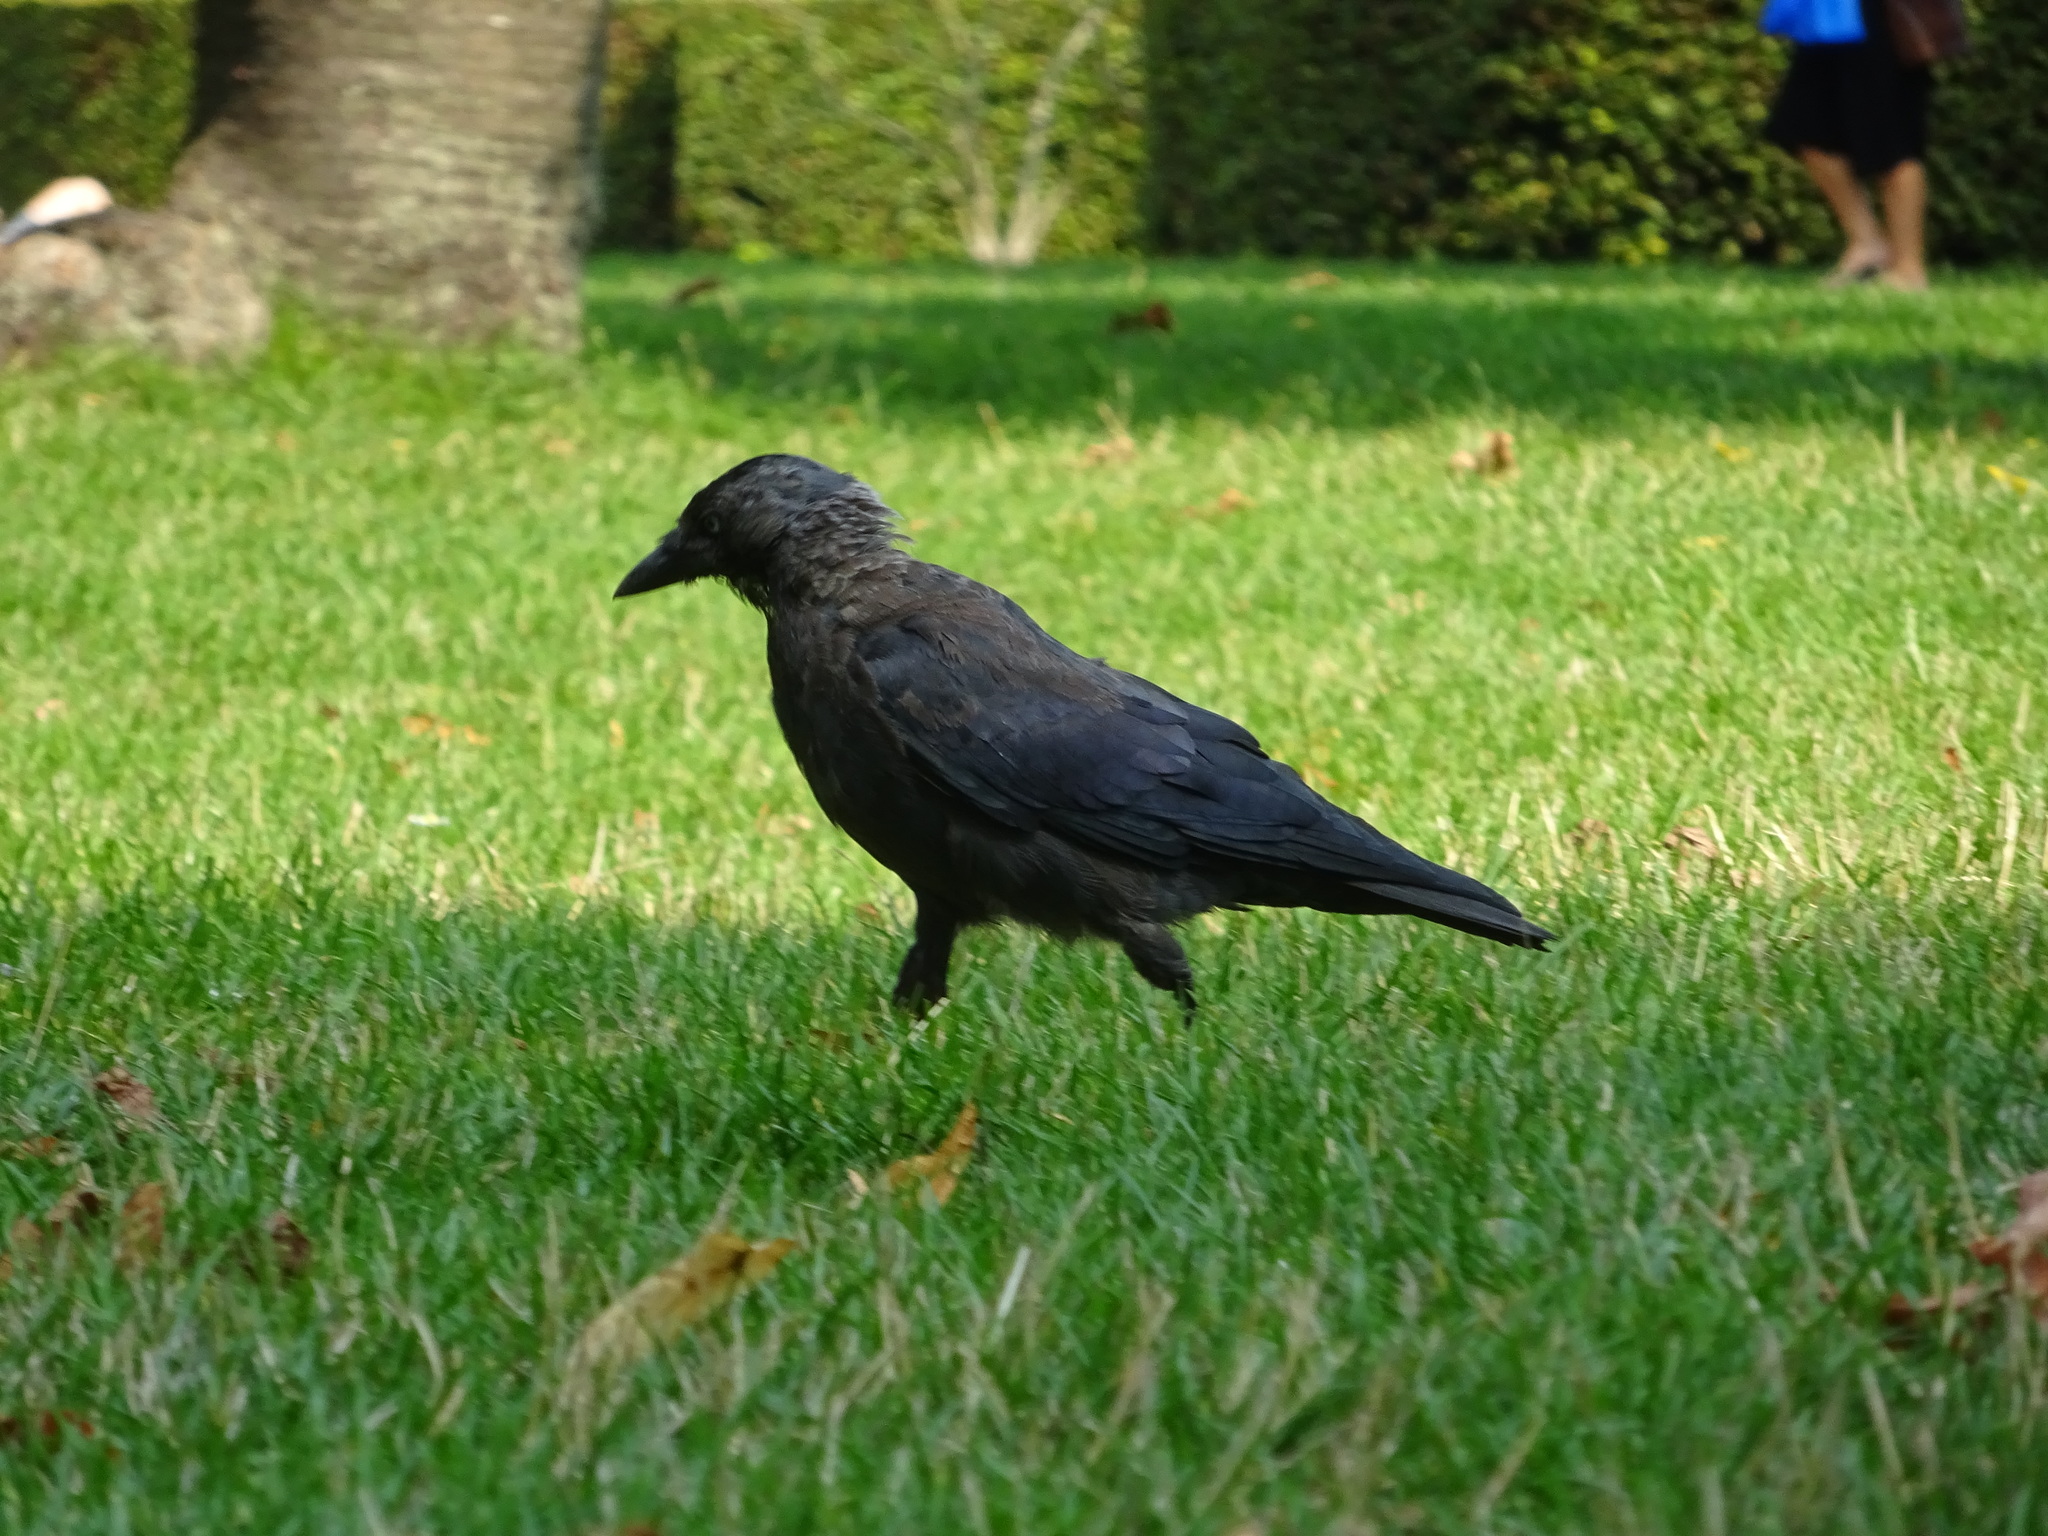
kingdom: Animalia
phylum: Chordata
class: Aves
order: Passeriformes
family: Corvidae
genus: Coloeus
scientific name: Coloeus monedula
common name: Western jackdaw
